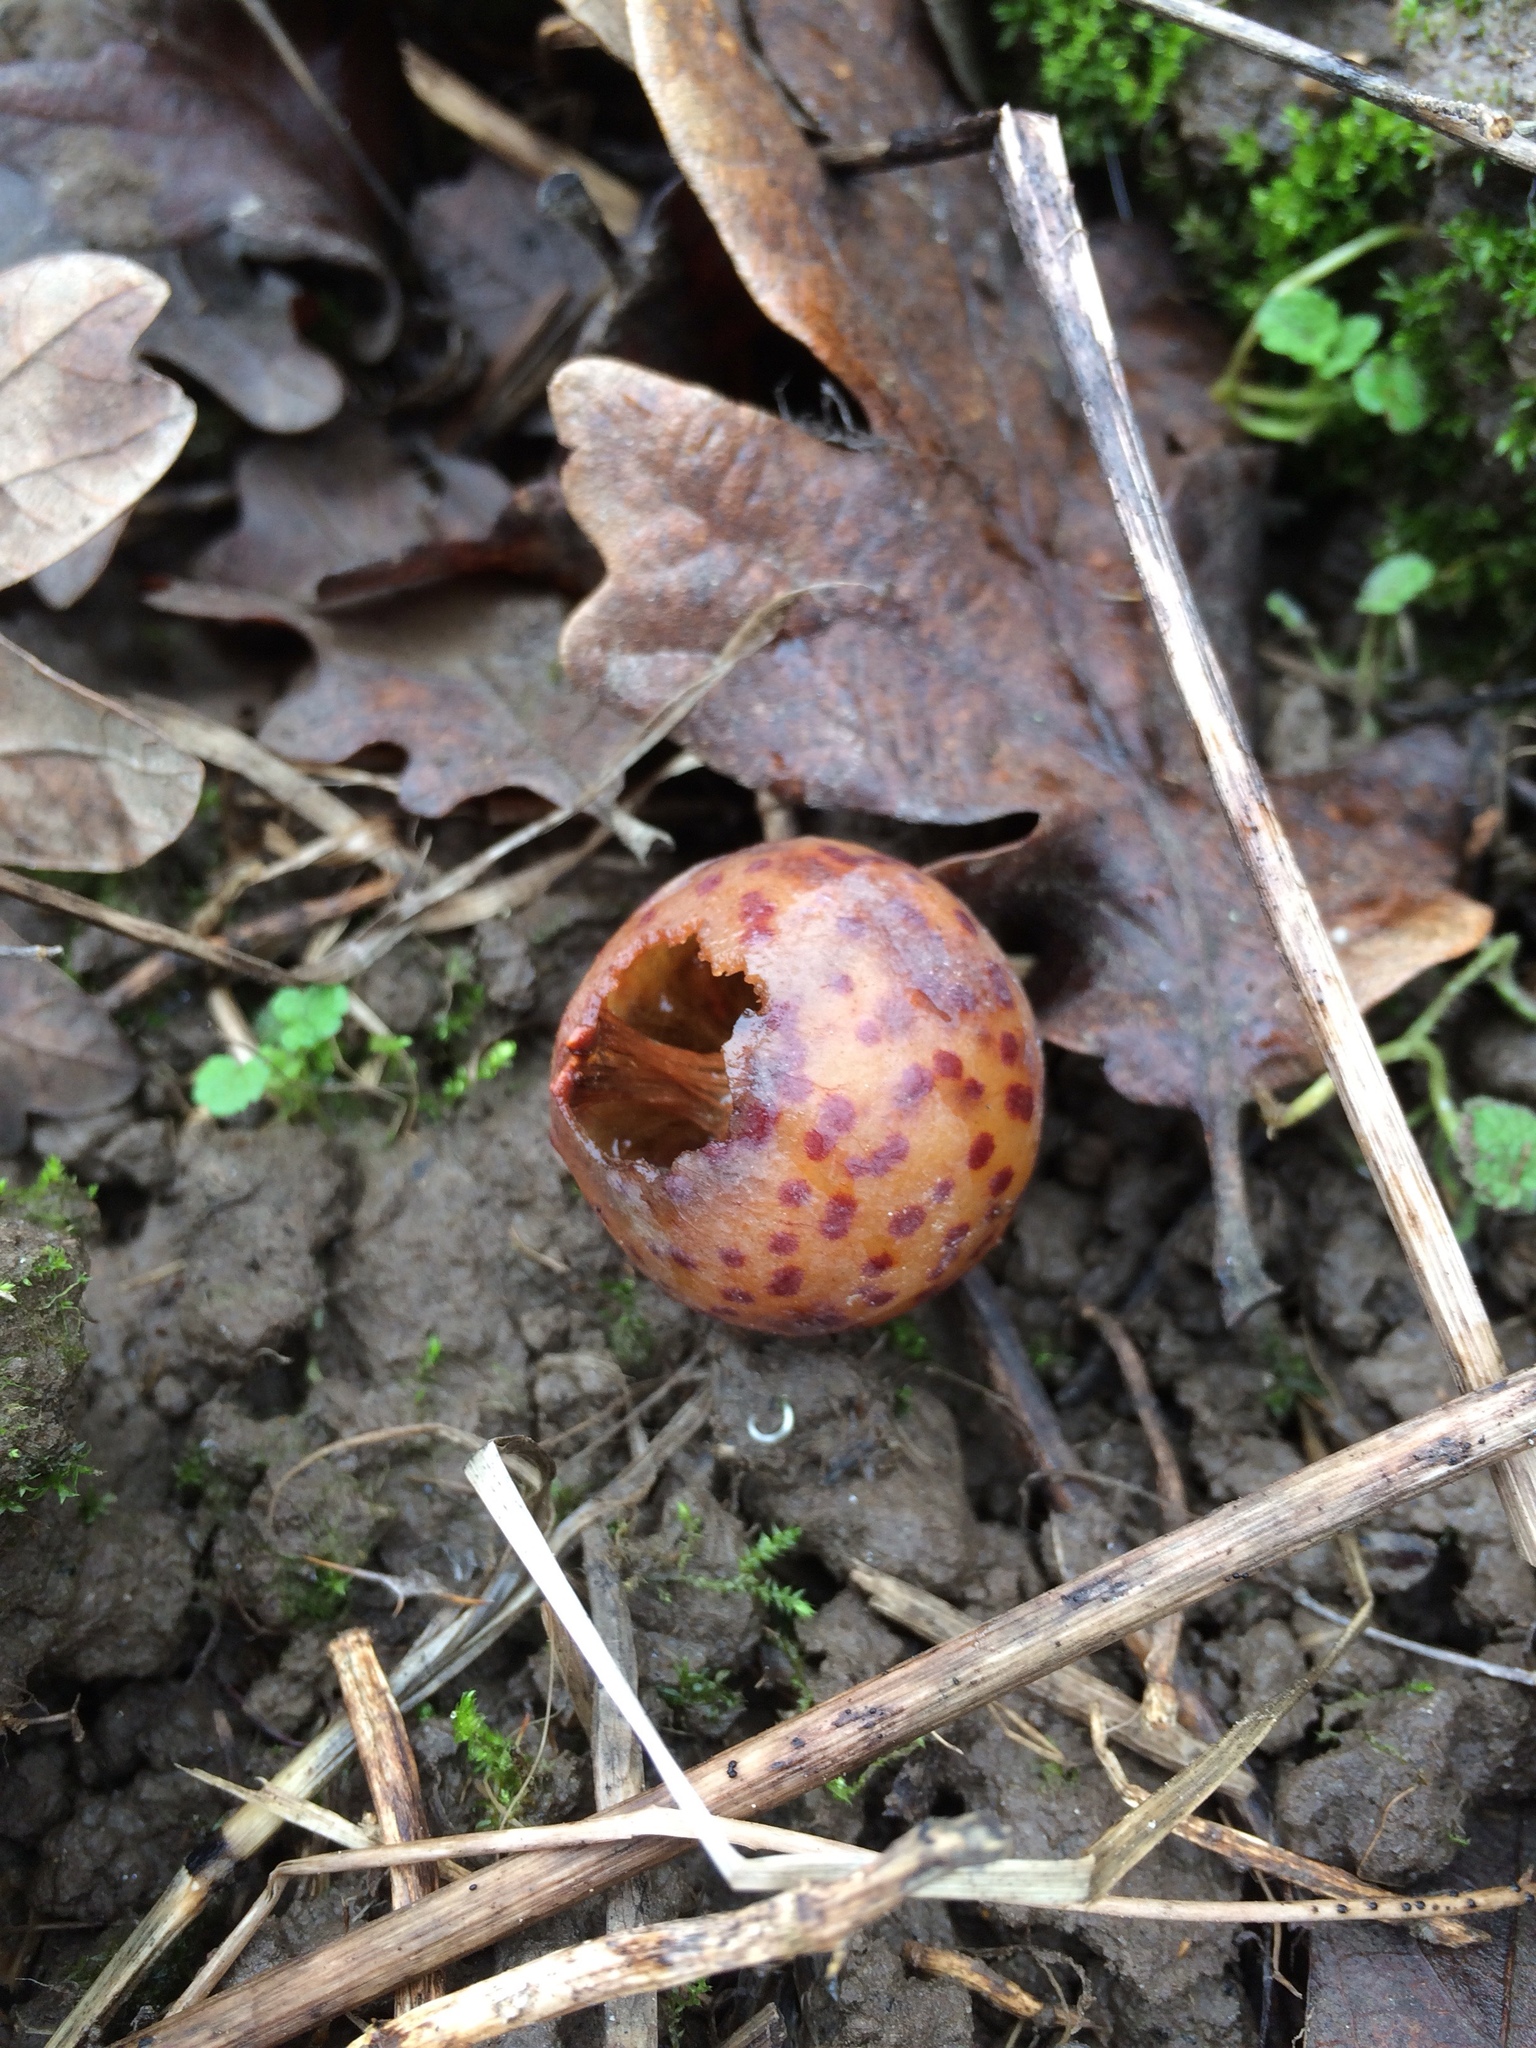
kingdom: Animalia
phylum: Arthropoda
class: Insecta
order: Hymenoptera
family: Cynipidae
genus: Cynips
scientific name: Cynips
